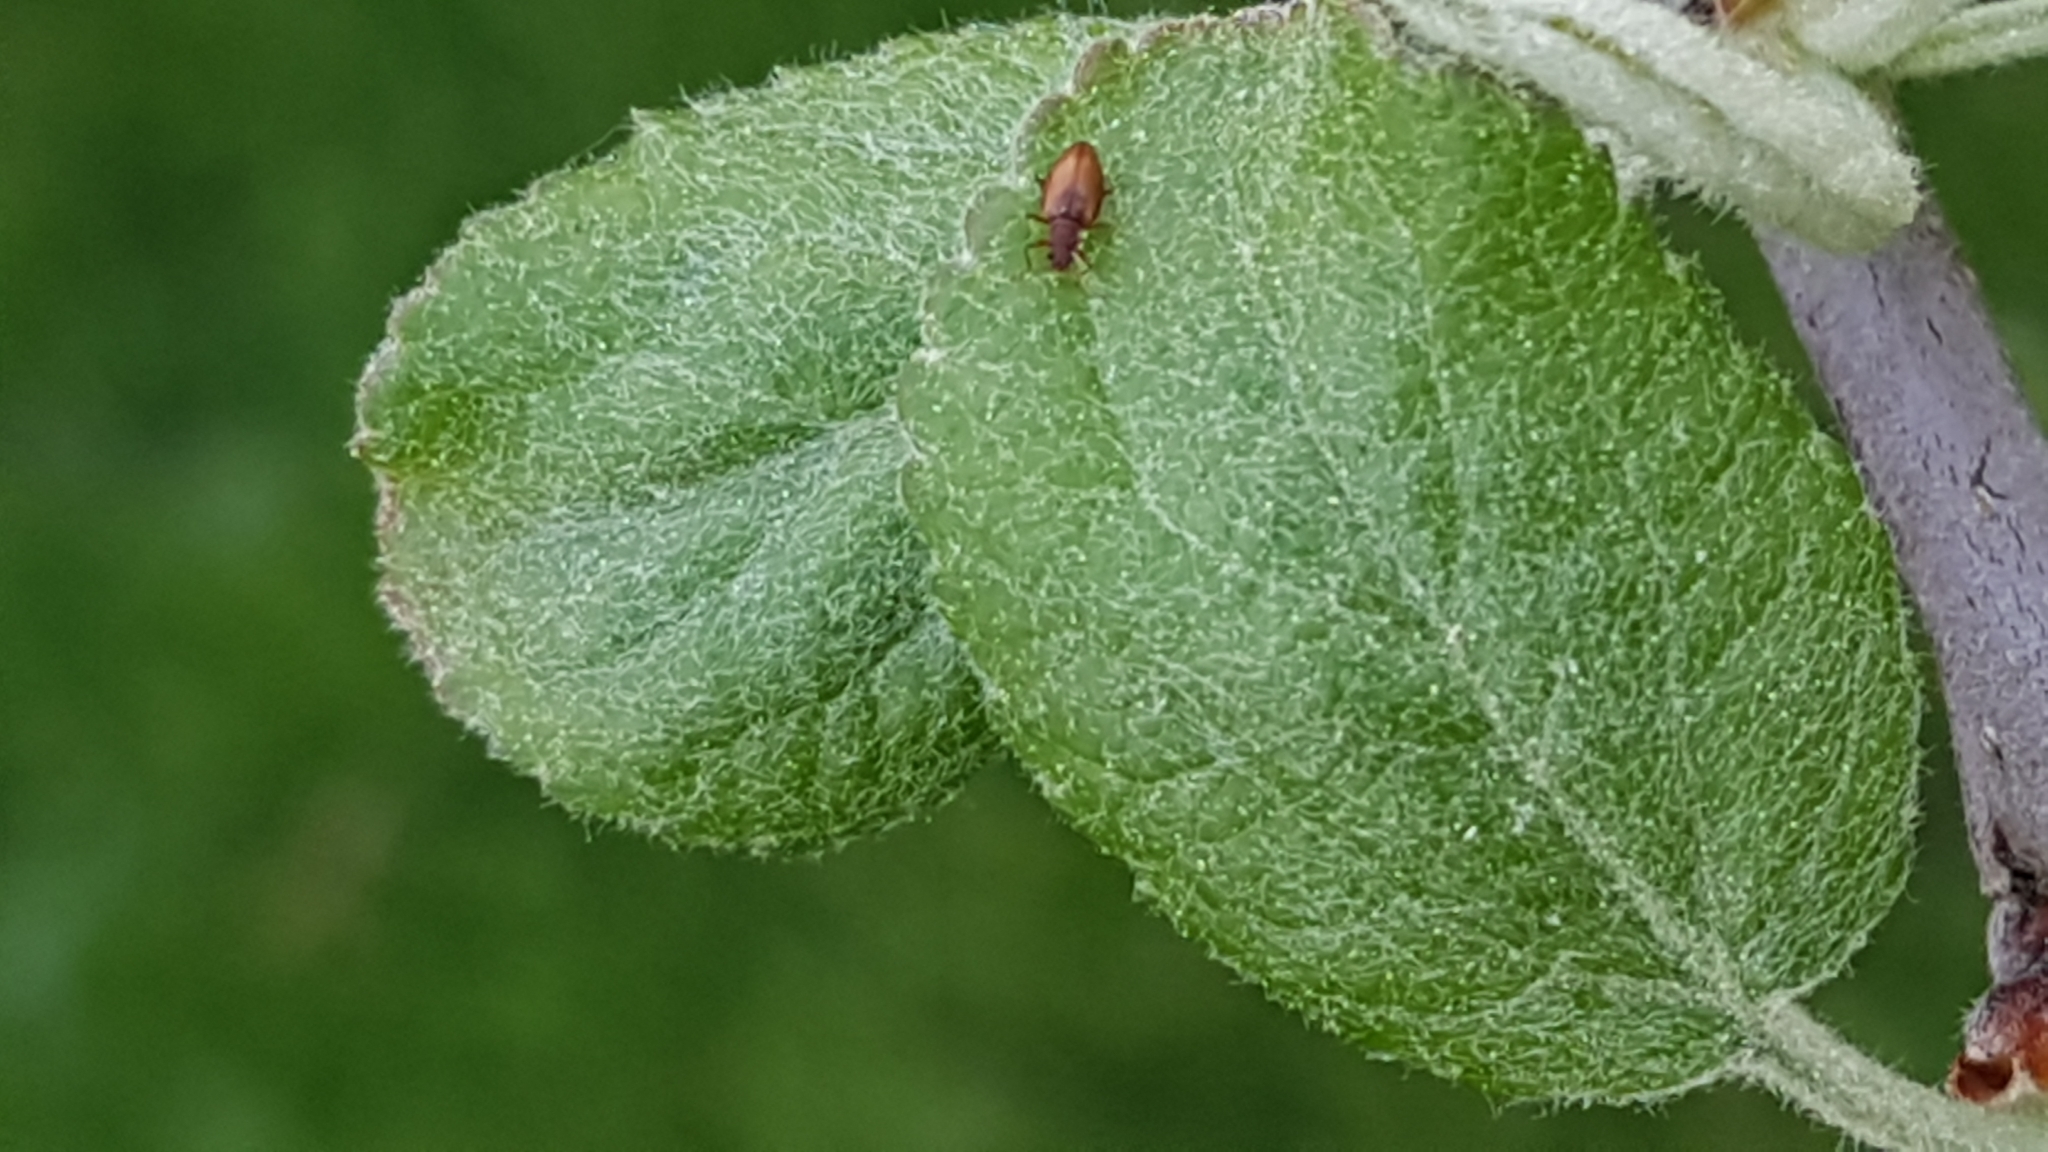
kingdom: Animalia
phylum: Arthropoda
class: Insecta
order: Coleoptera
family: Latridiidae
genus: Stephostethus
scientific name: Stephostethus lardarius
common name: Lardaceous minute scavenger beetle
